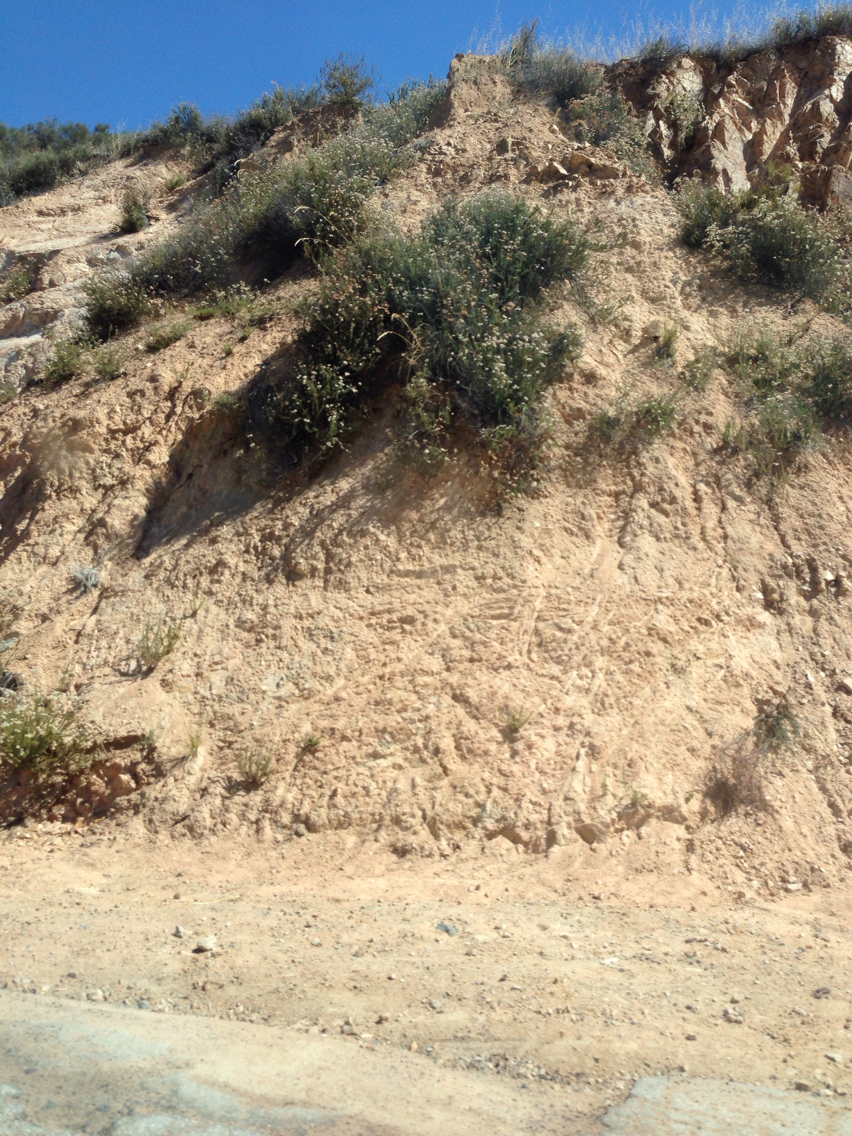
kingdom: Plantae
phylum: Tracheophyta
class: Magnoliopsida
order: Caryophyllales
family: Polygonaceae
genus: Eriogonum
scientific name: Eriogonum fasciculatum
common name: California wild buckwheat
